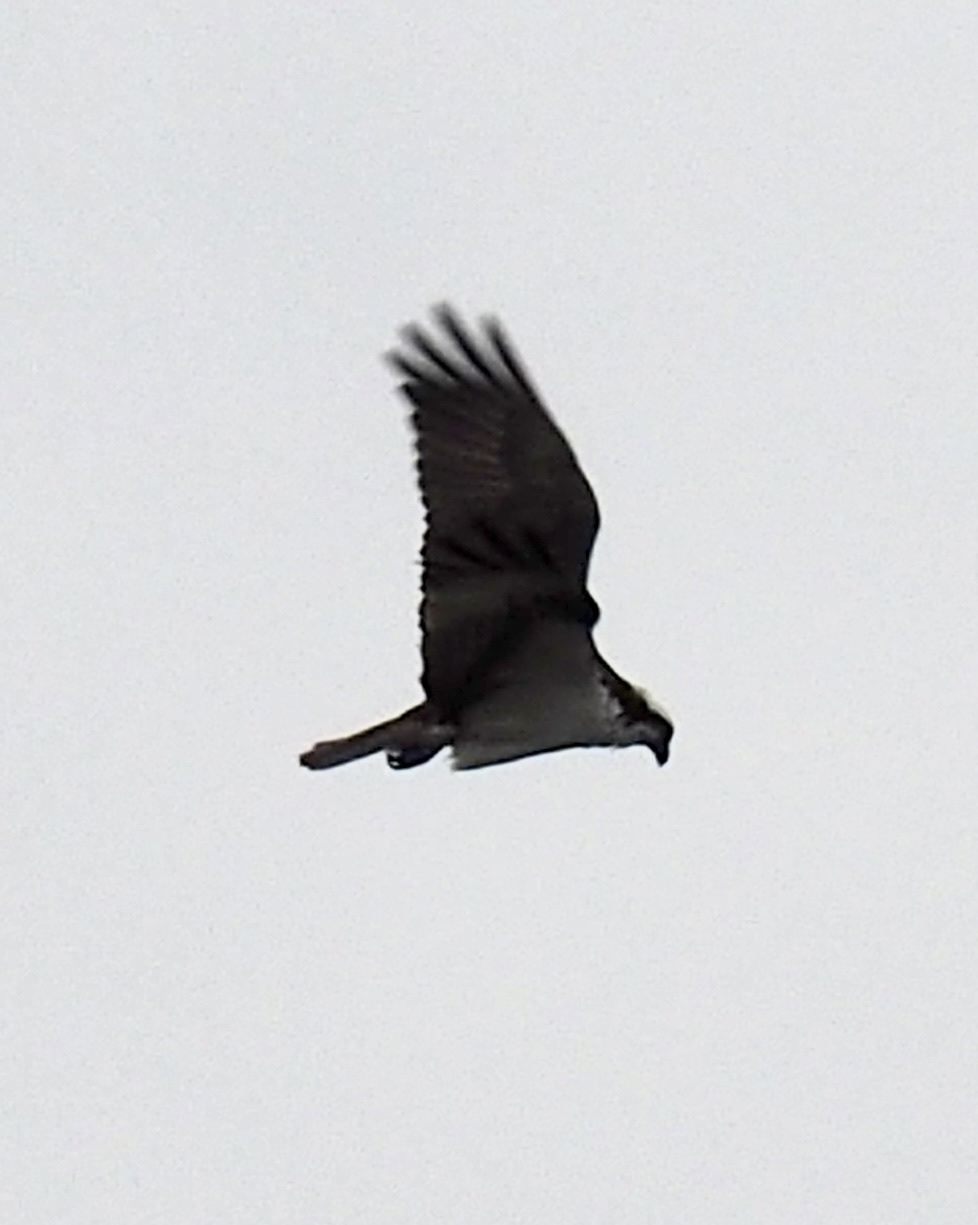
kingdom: Animalia
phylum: Chordata
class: Aves
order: Accipitriformes
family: Pandionidae
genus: Pandion
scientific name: Pandion haliaetus
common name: Osprey
